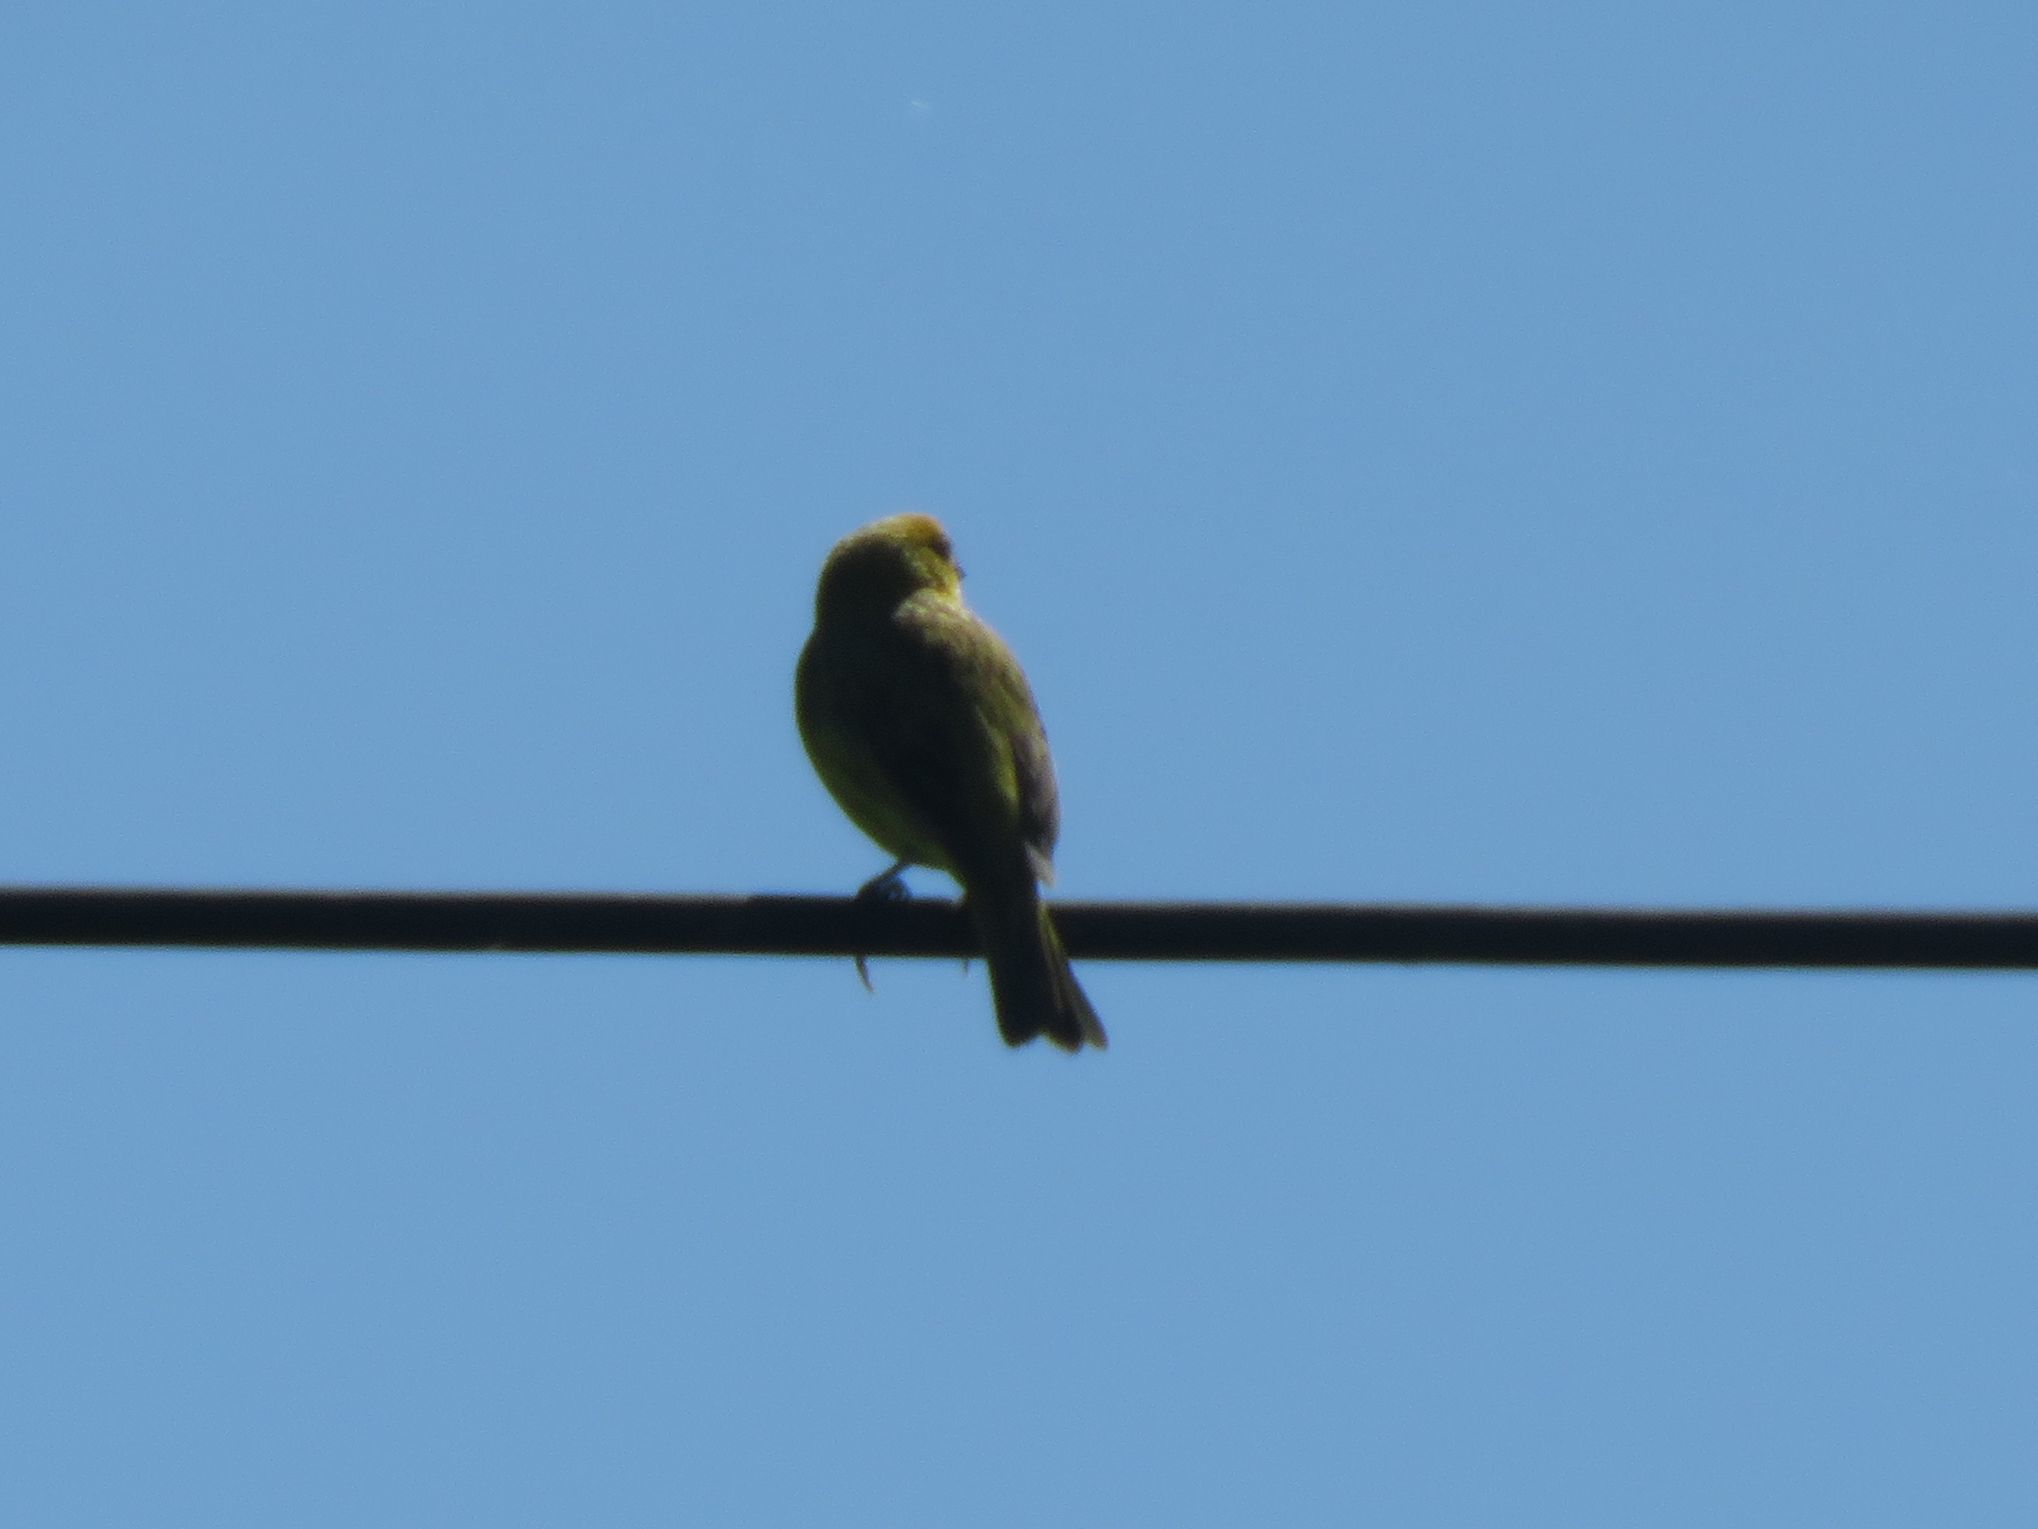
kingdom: Animalia
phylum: Chordata
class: Aves
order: Passeriformes
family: Thraupidae
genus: Sicalis
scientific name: Sicalis flaveola
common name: Saffron finch
